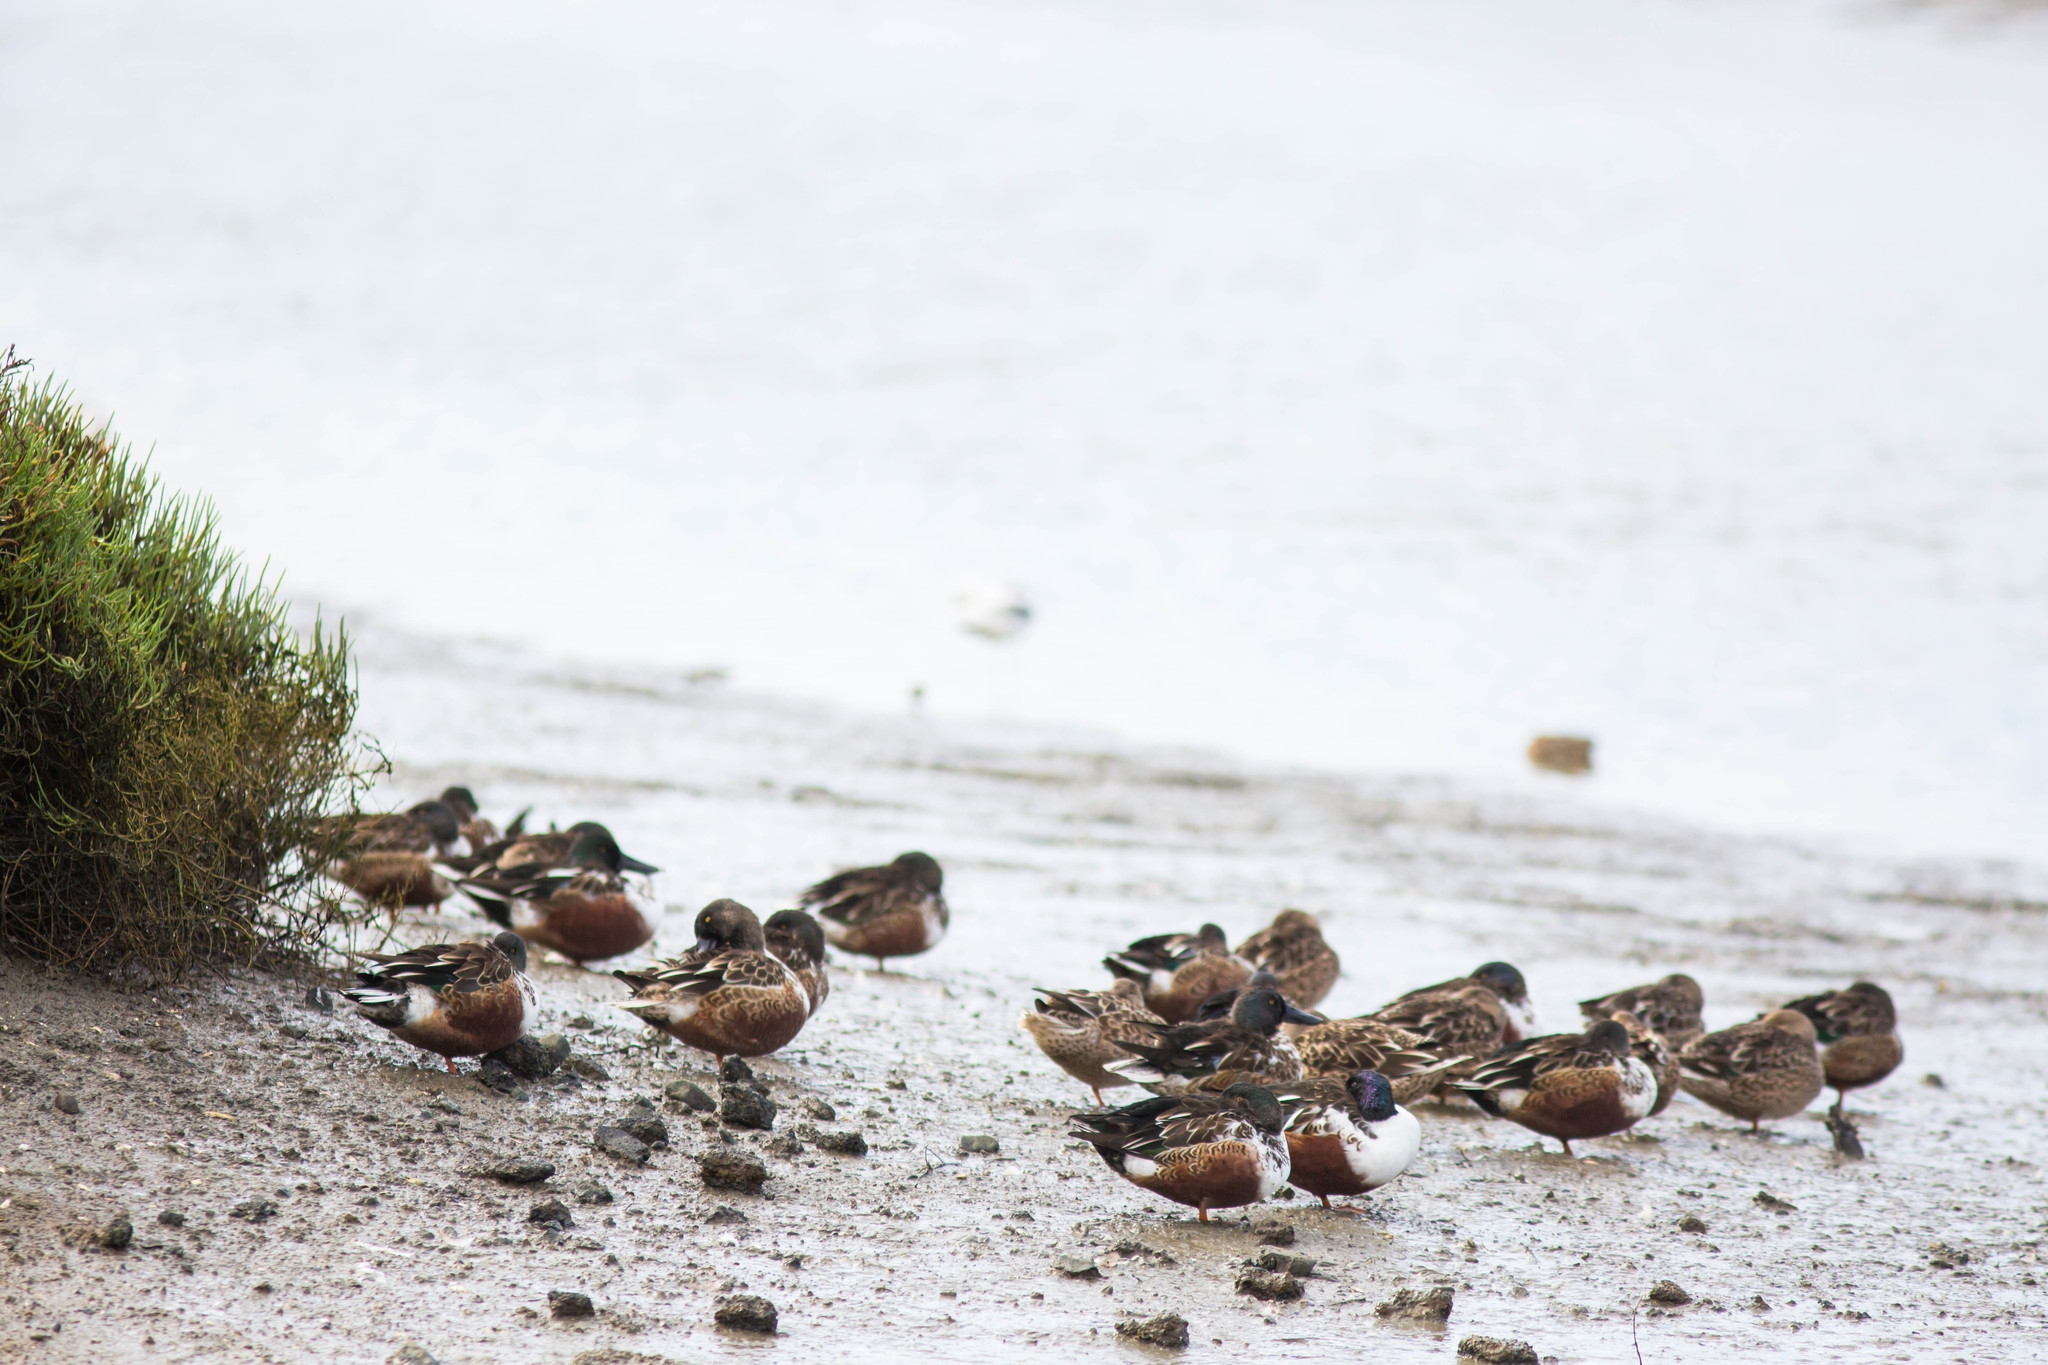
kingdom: Animalia
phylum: Chordata
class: Aves
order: Anseriformes
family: Anatidae
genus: Spatula
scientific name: Spatula clypeata
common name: Northern shoveler
